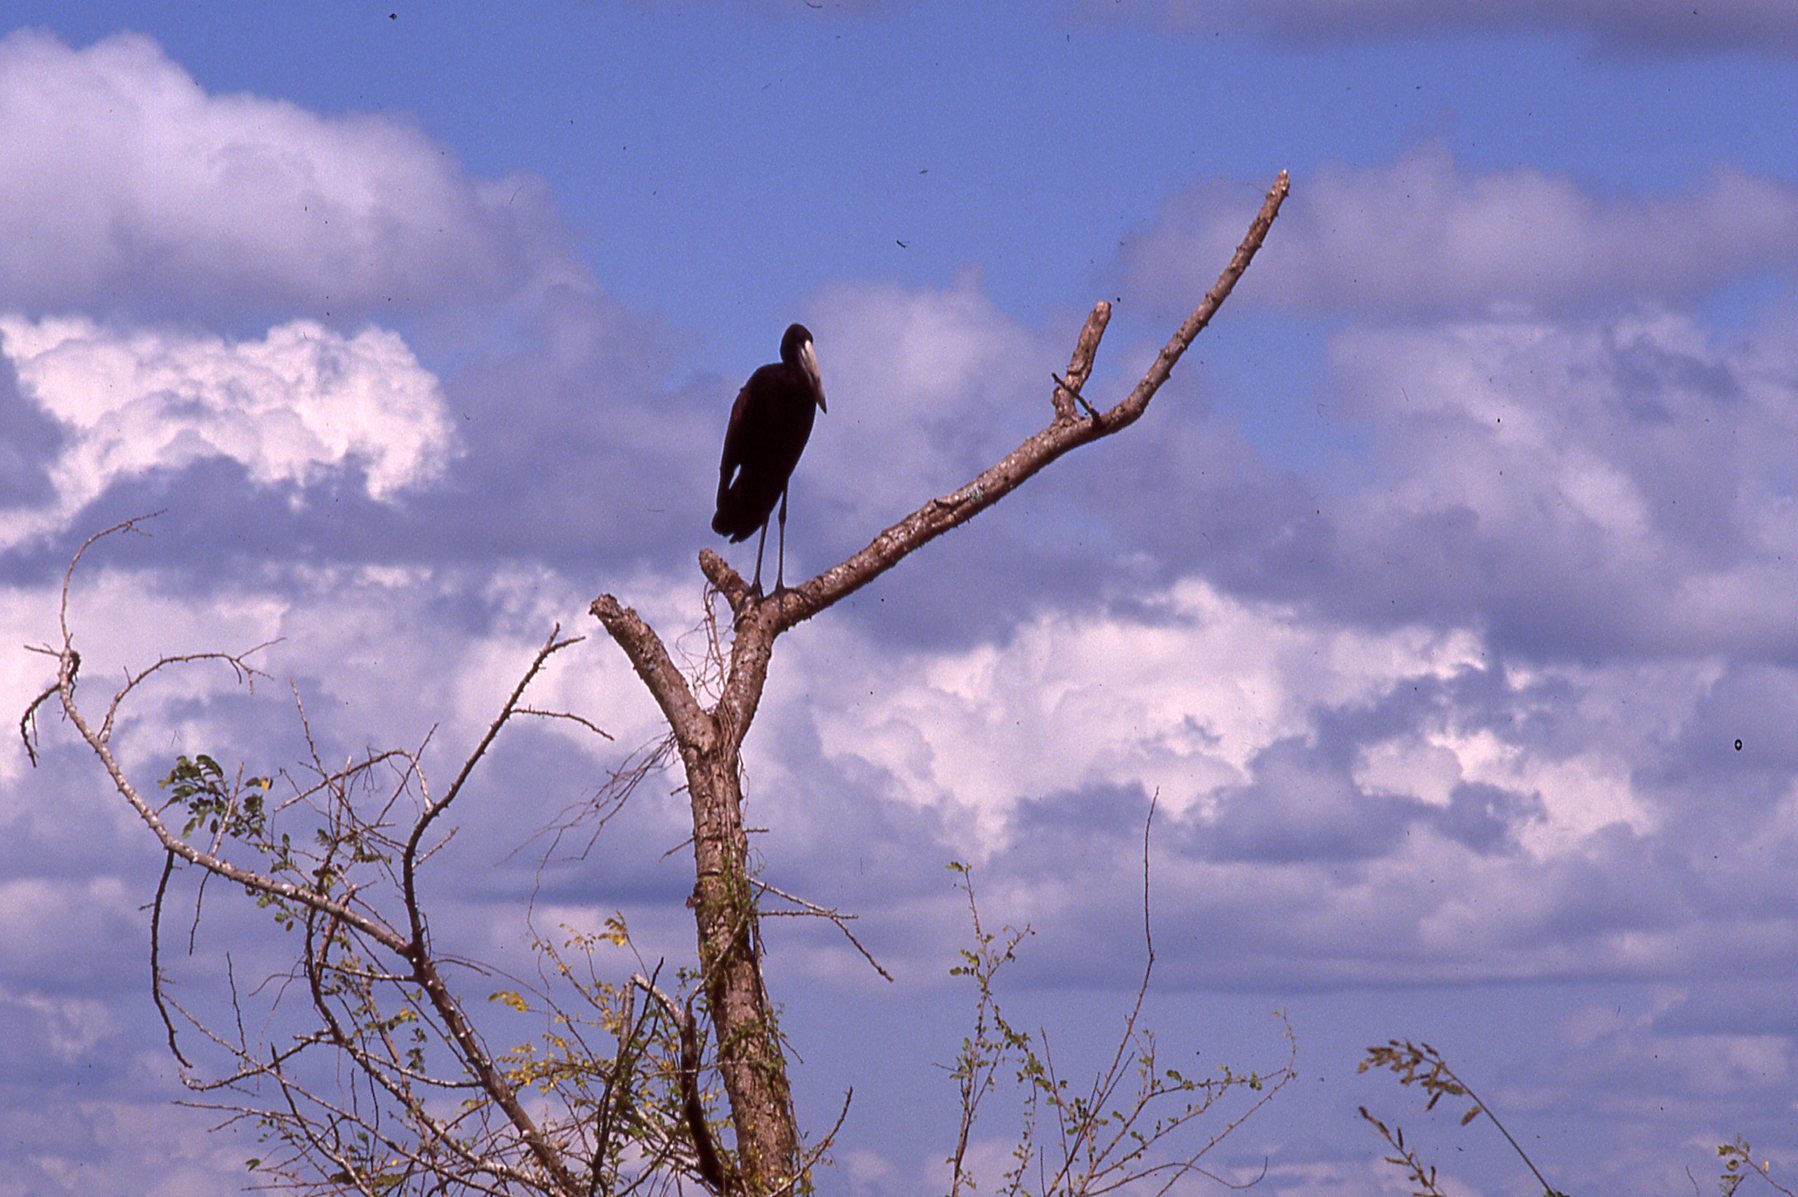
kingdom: Animalia
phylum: Chordata
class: Aves
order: Ciconiiformes
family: Ciconiidae
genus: Anastomus
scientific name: Anastomus lamelligerus
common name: African openbill
